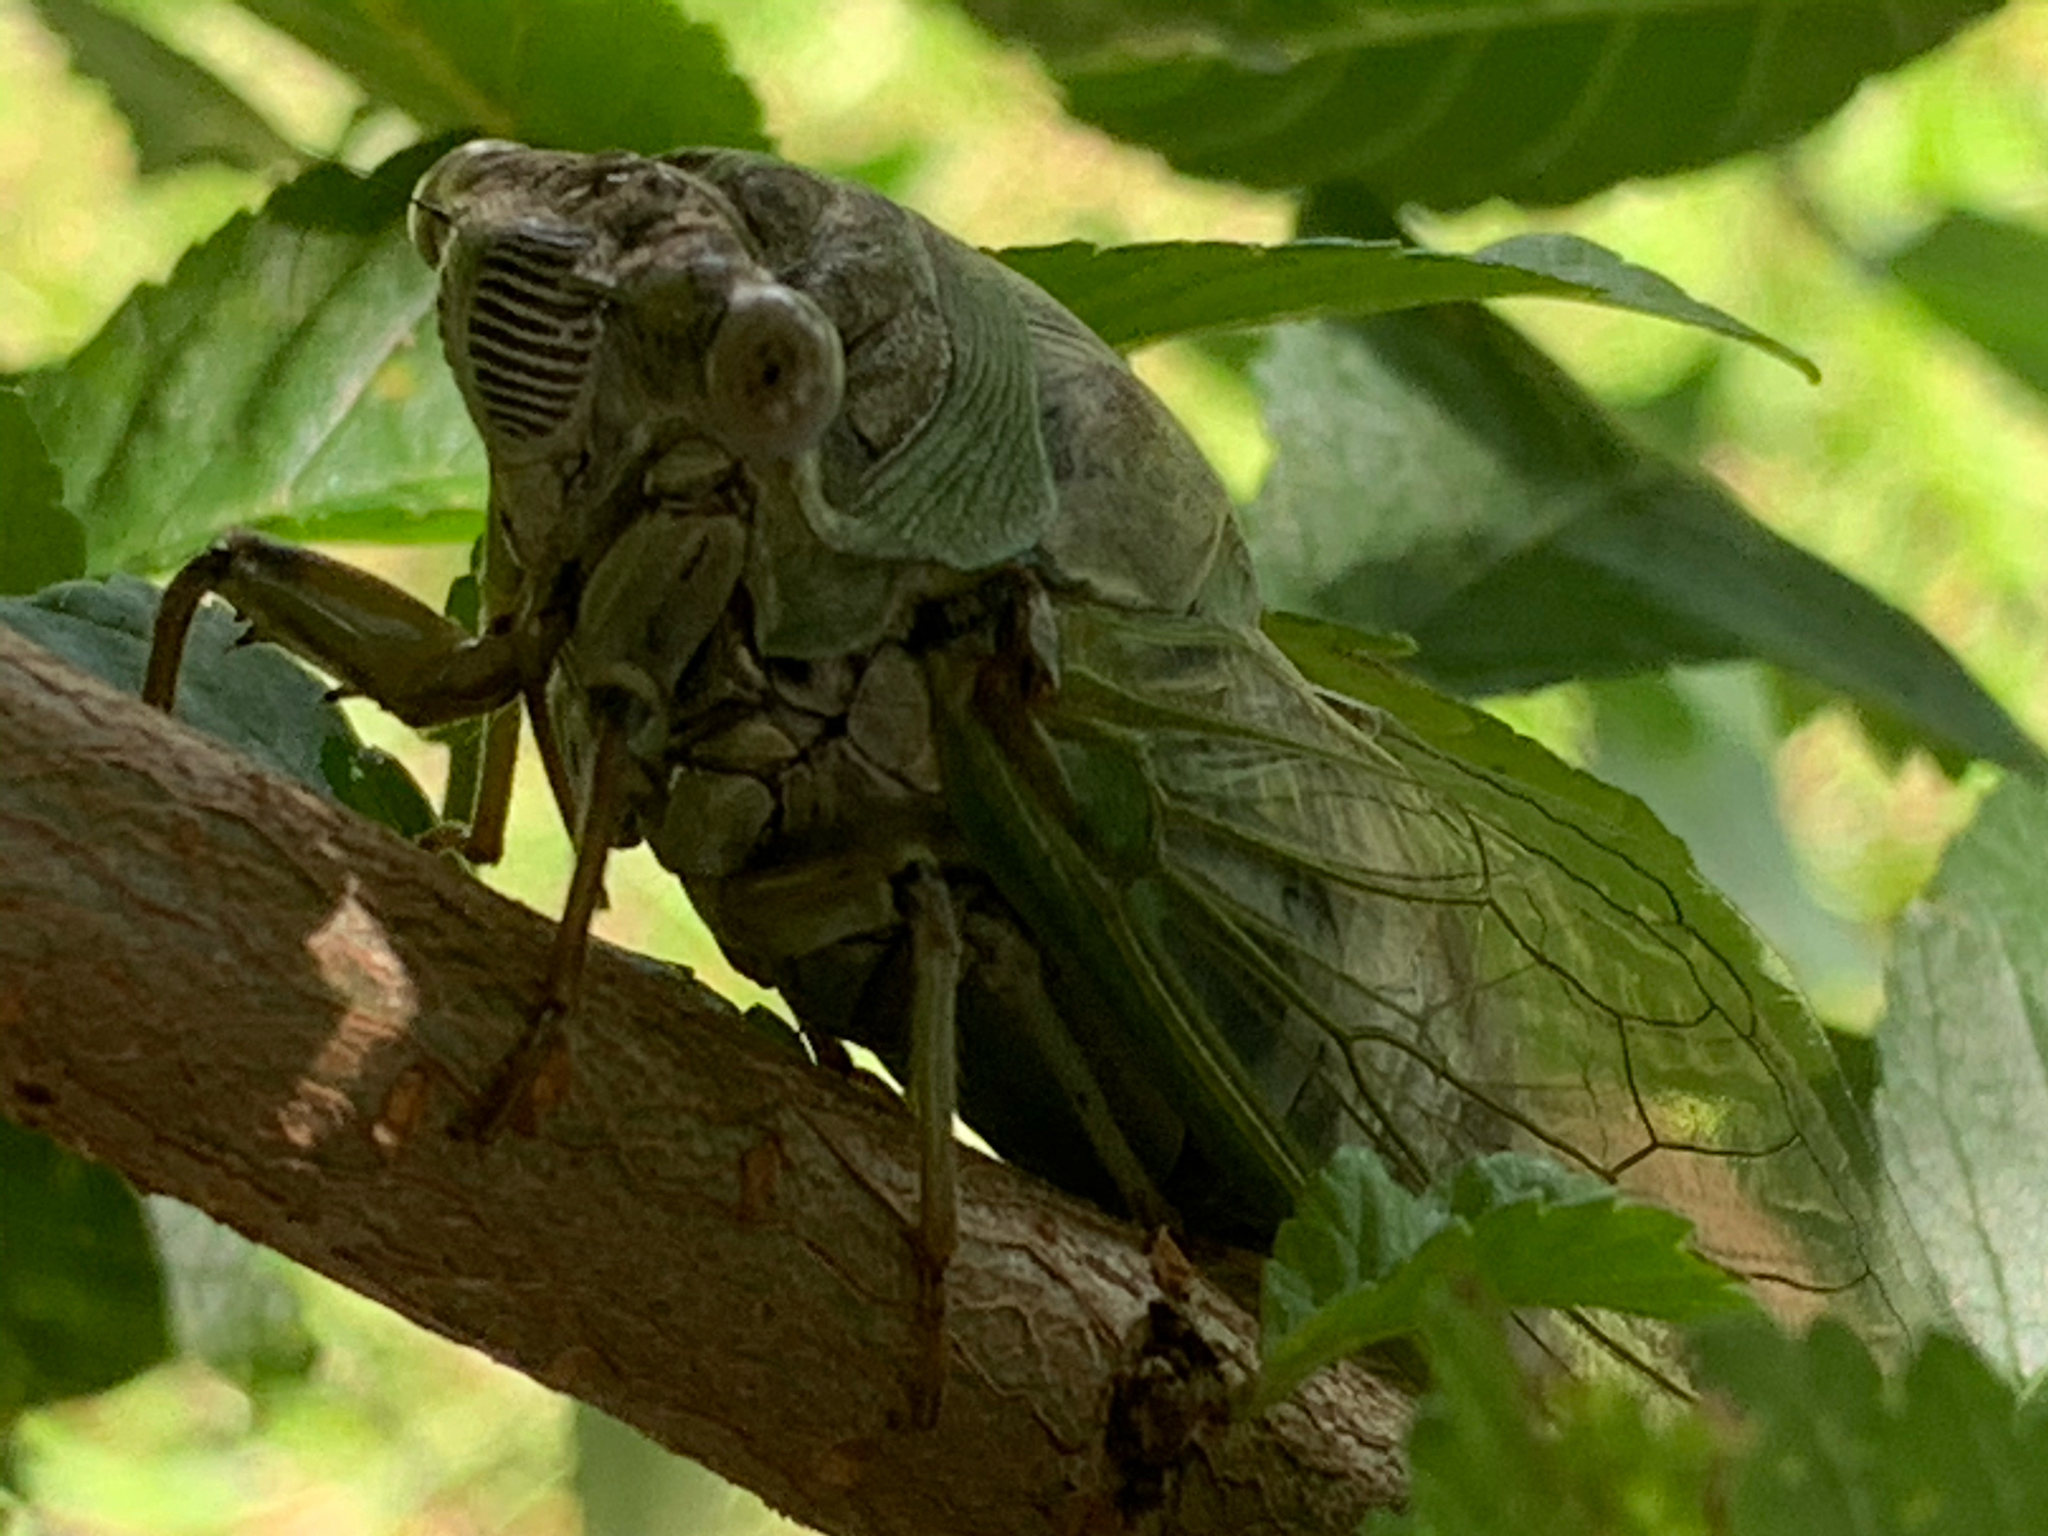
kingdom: Animalia
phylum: Arthropoda
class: Insecta
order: Hemiptera
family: Cicadidae
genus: Diceroprocta
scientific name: Diceroprocta grossa
